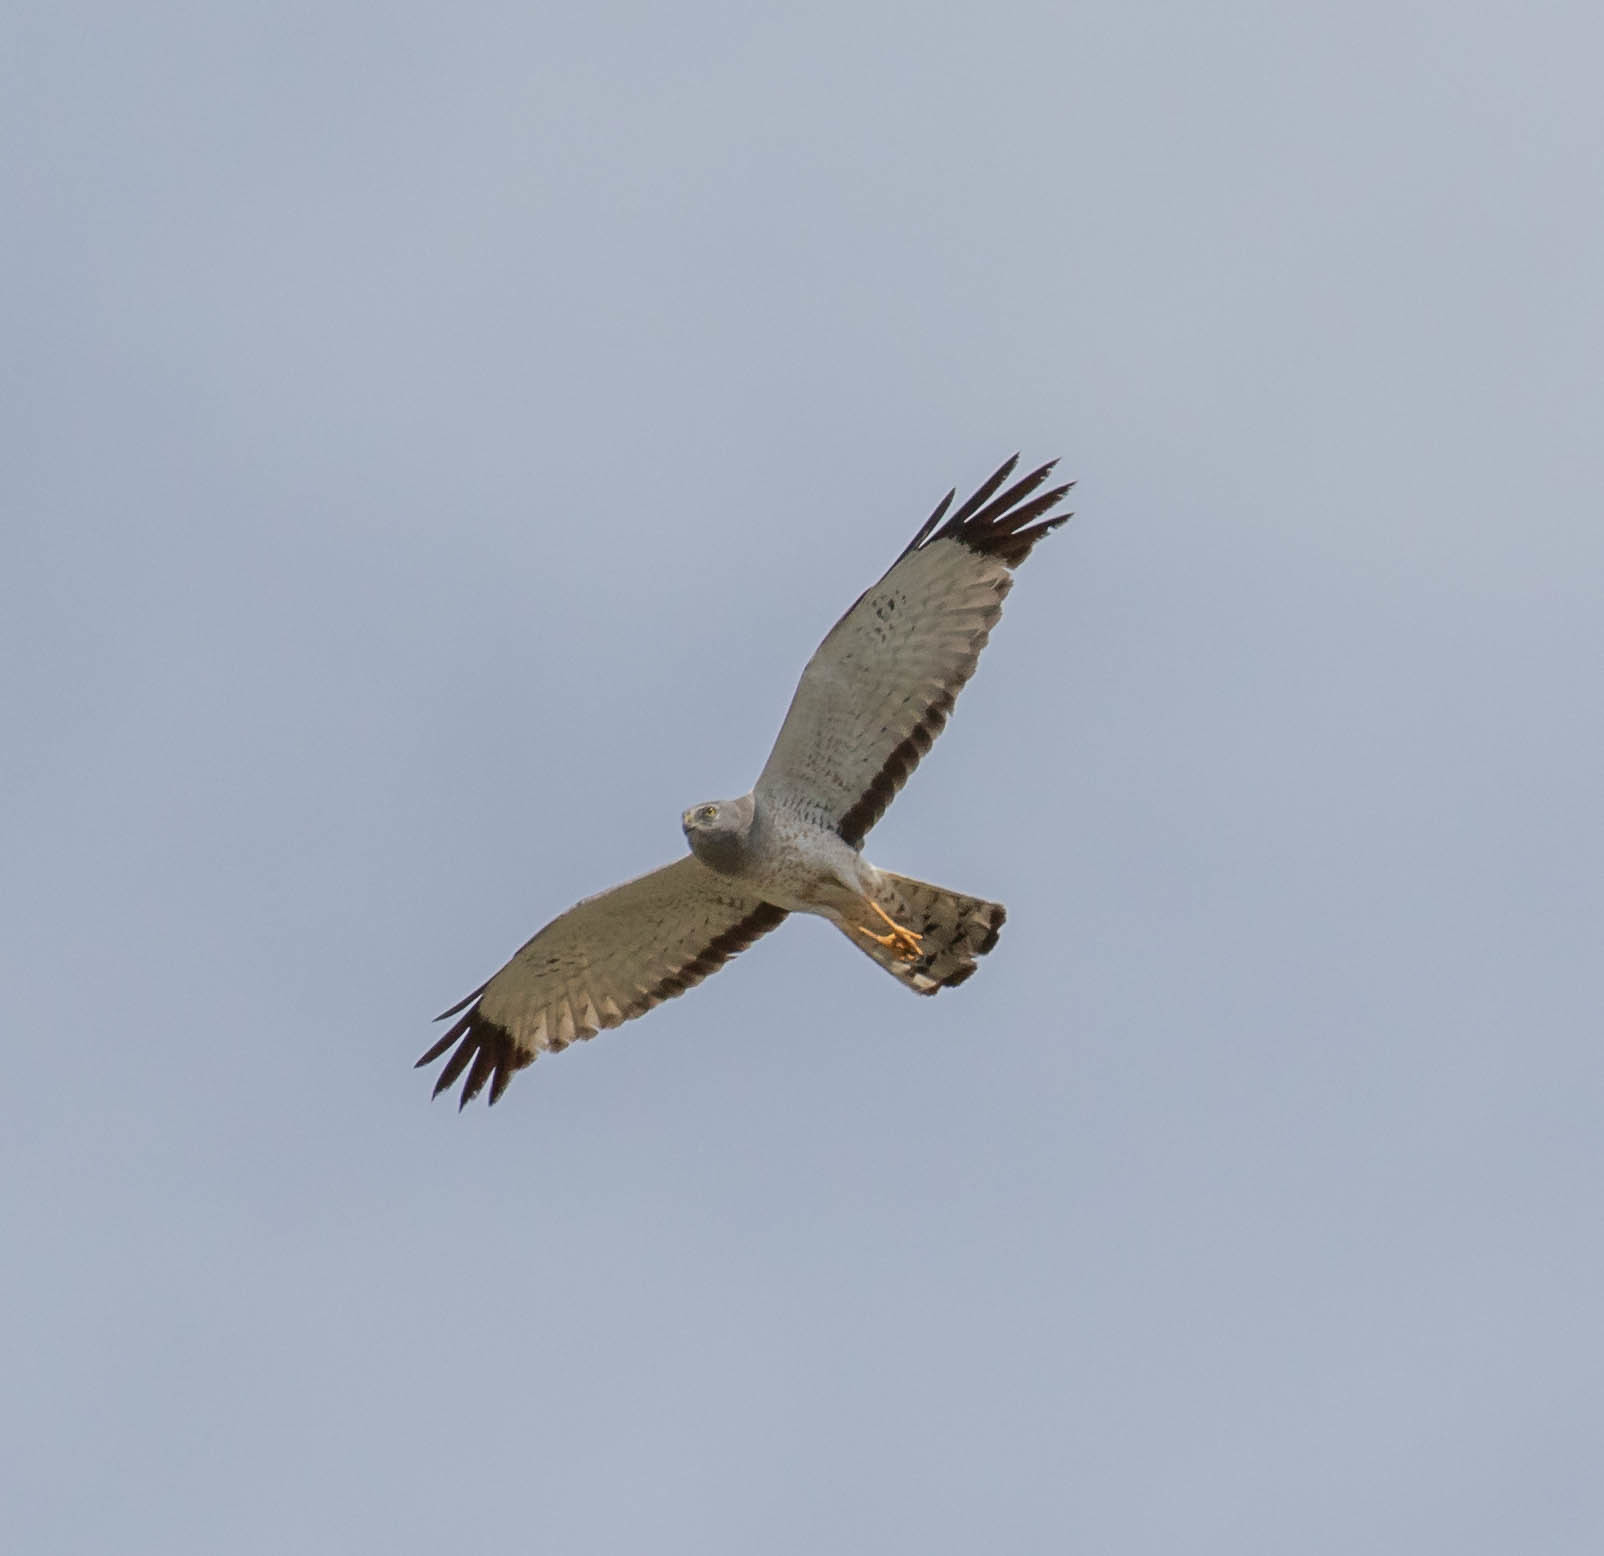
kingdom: Animalia
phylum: Chordata
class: Aves
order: Accipitriformes
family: Accipitridae
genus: Circus
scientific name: Circus cyaneus
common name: Hen harrier
